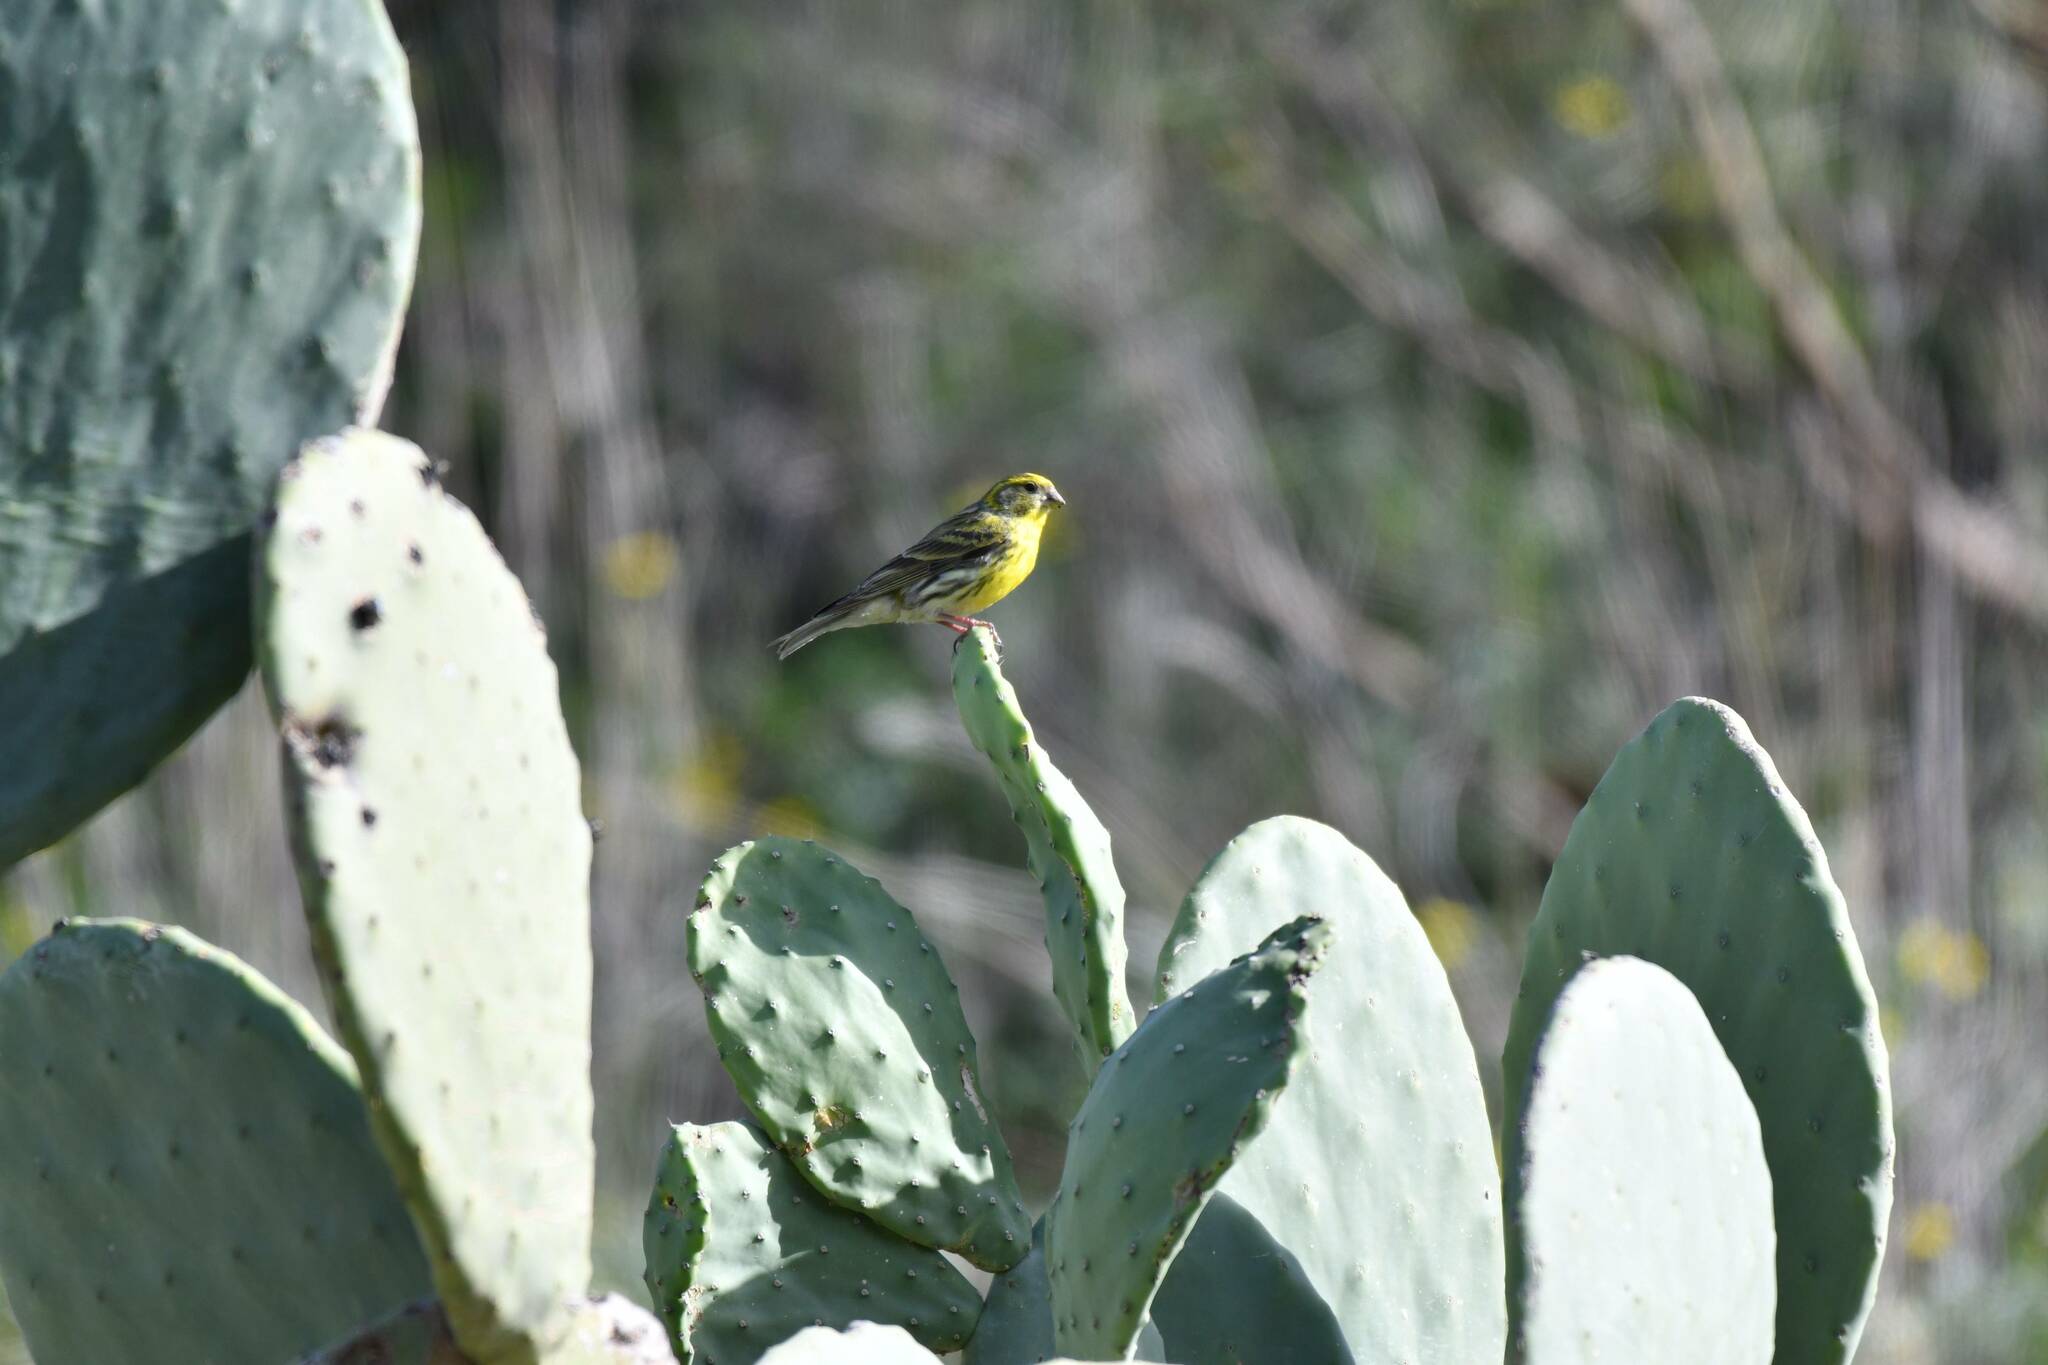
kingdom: Animalia
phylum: Chordata
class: Aves
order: Passeriformes
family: Fringillidae
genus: Serinus
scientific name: Serinus serinus
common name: European serin
